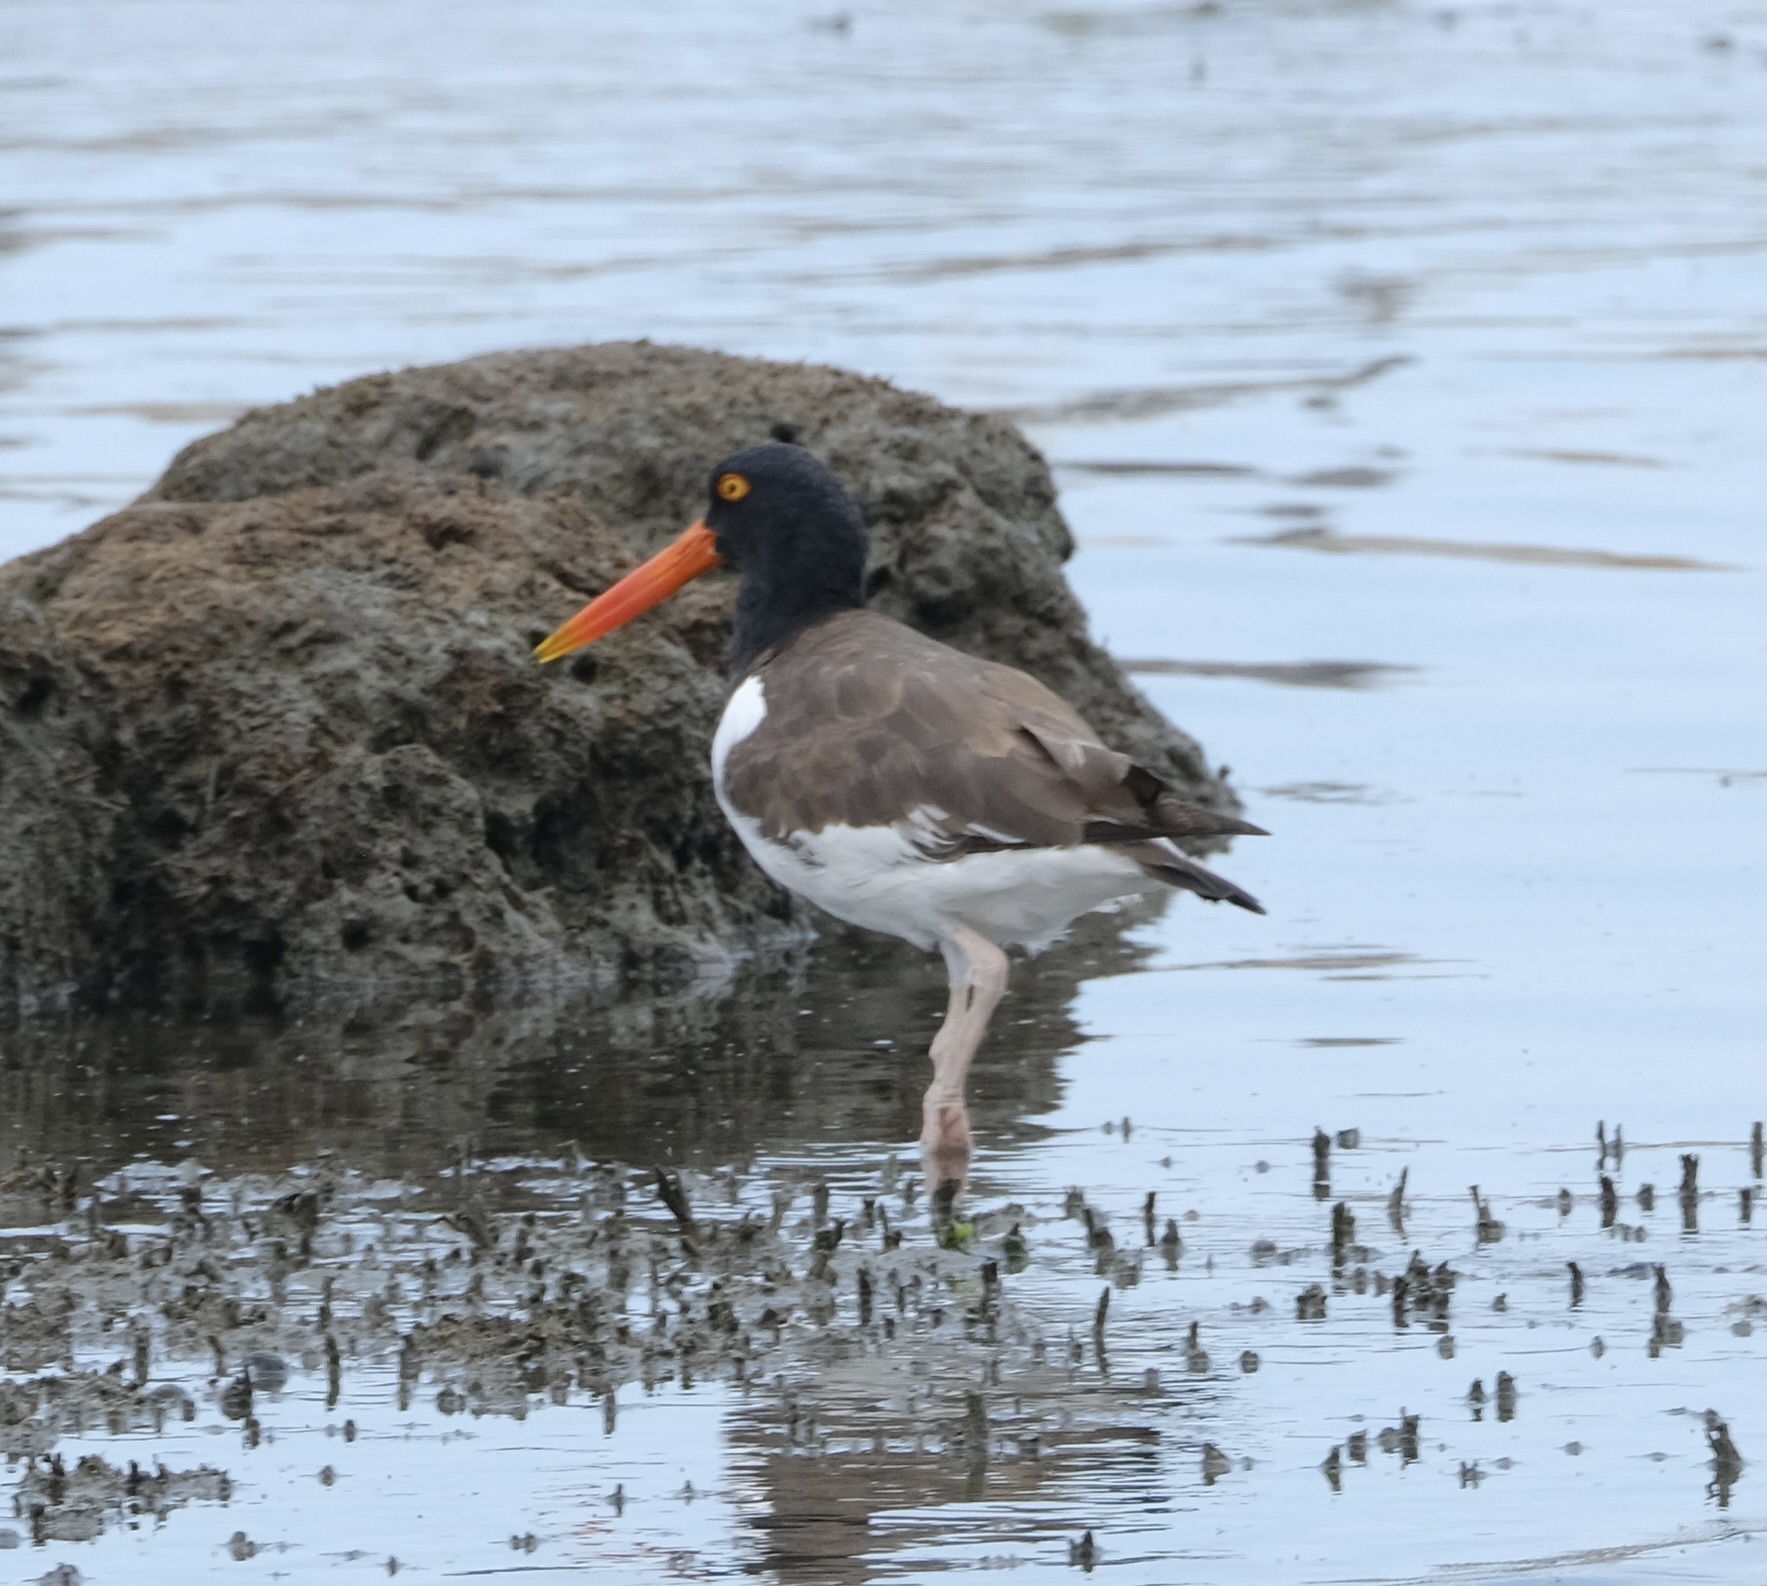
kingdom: Animalia
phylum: Chordata
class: Aves
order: Charadriiformes
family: Haematopodidae
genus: Haematopus
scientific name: Haematopus palliatus
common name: American oystercatcher
